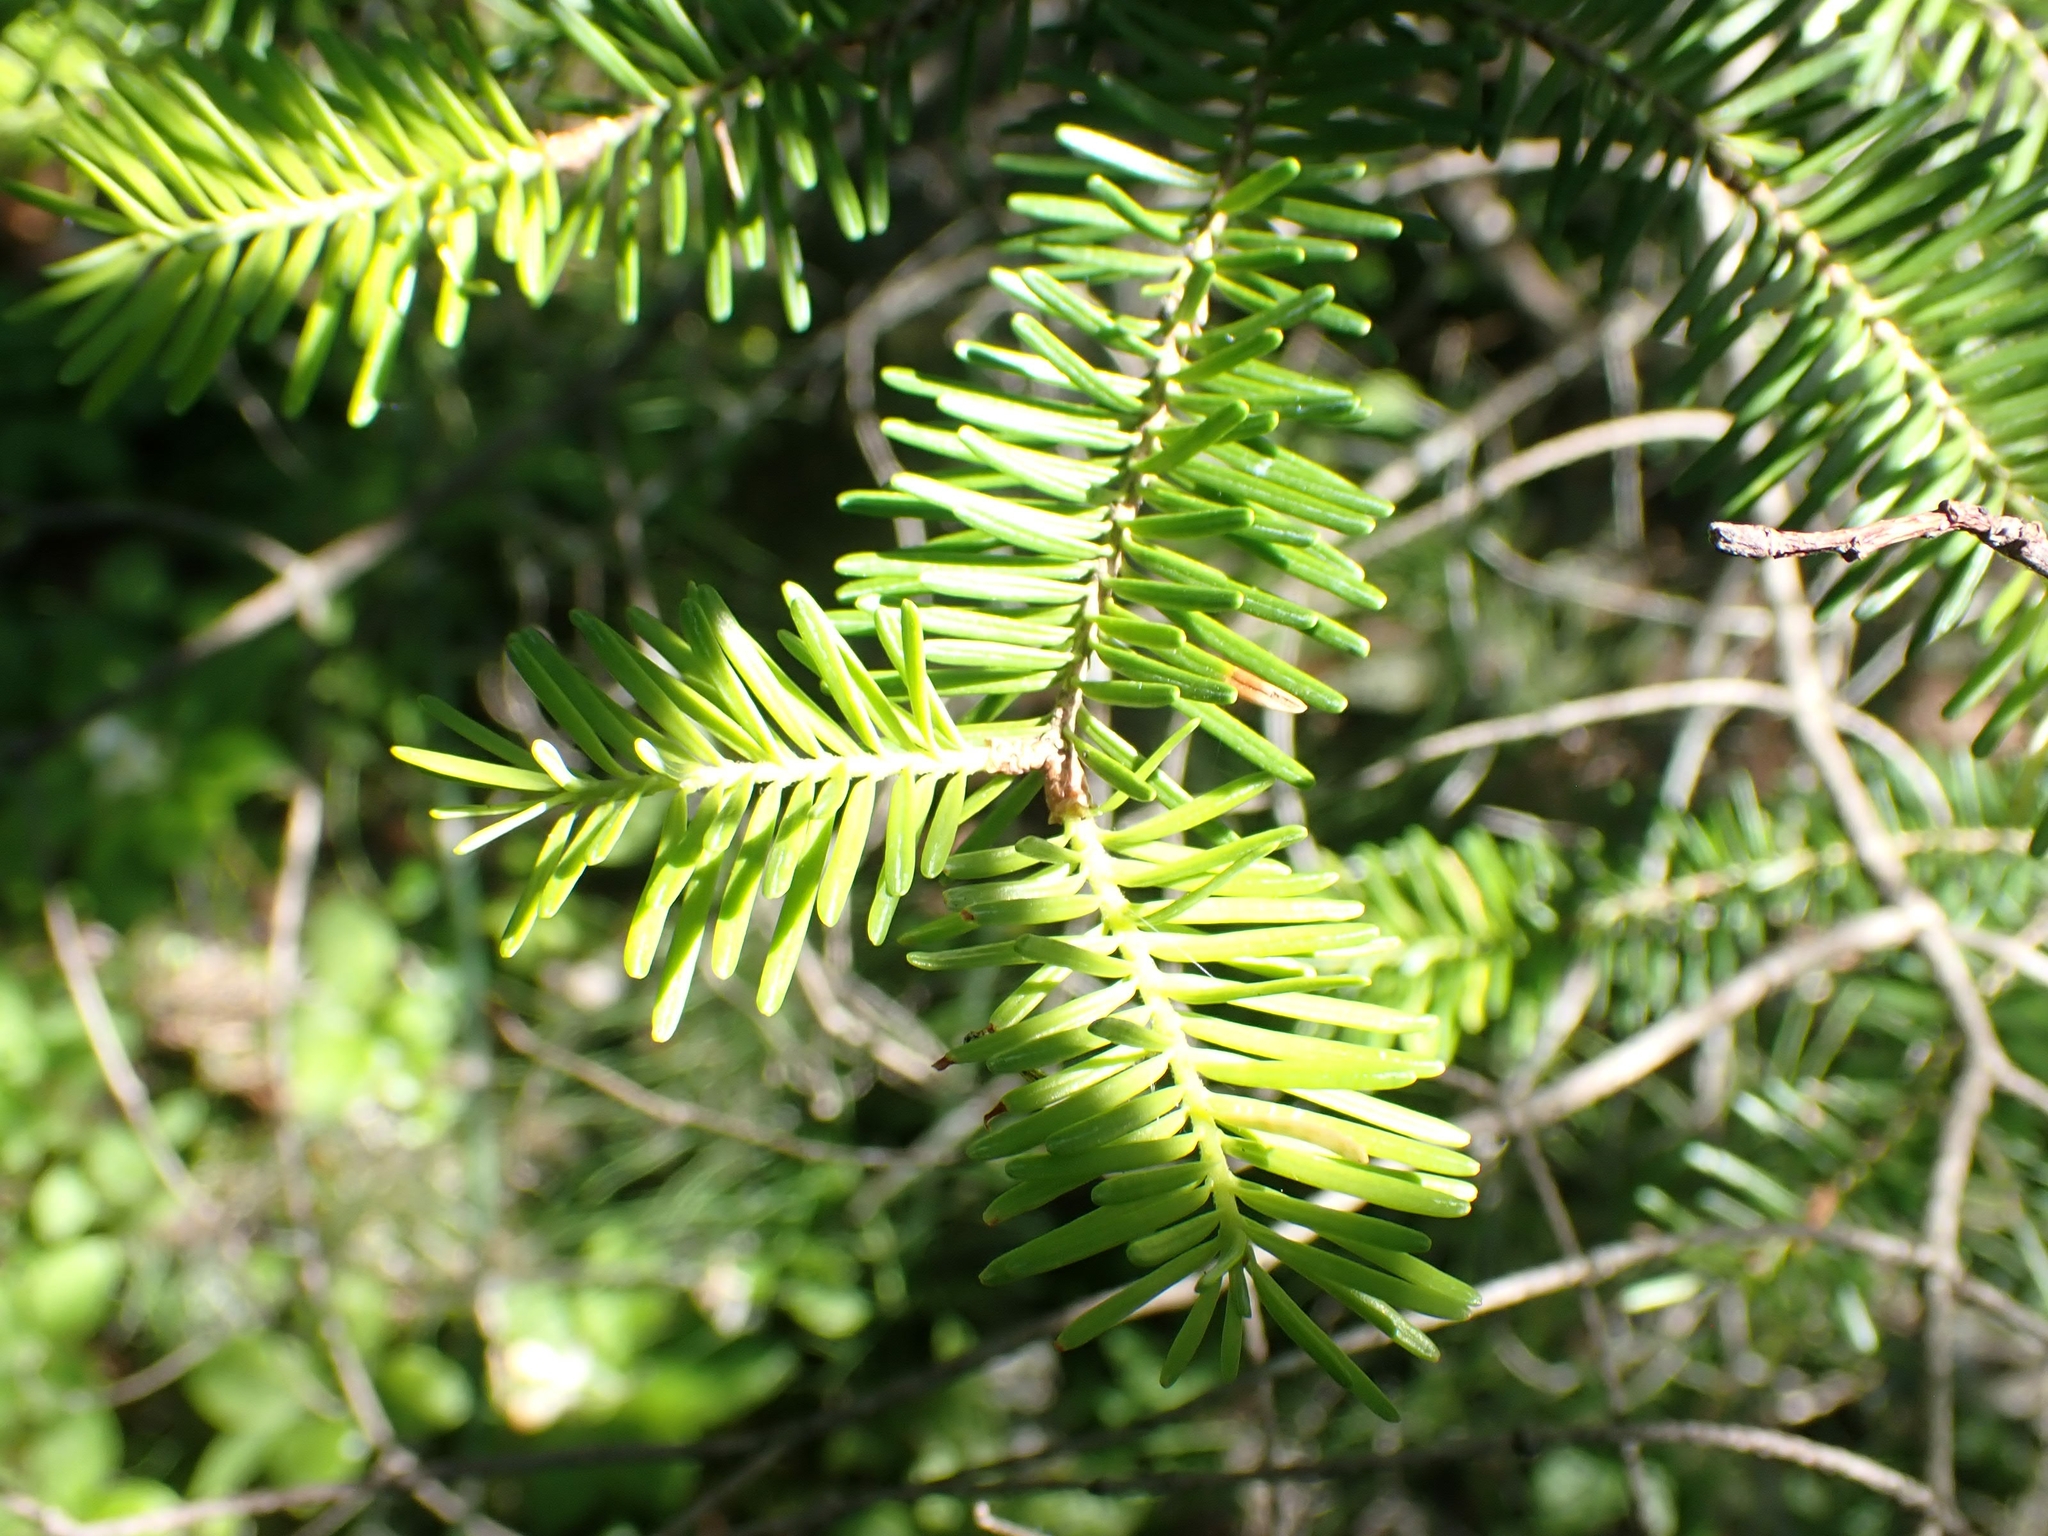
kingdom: Plantae
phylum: Tracheophyta
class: Pinopsida
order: Pinales
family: Pinaceae
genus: Abies
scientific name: Abies balsamea
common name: Balsam fir
